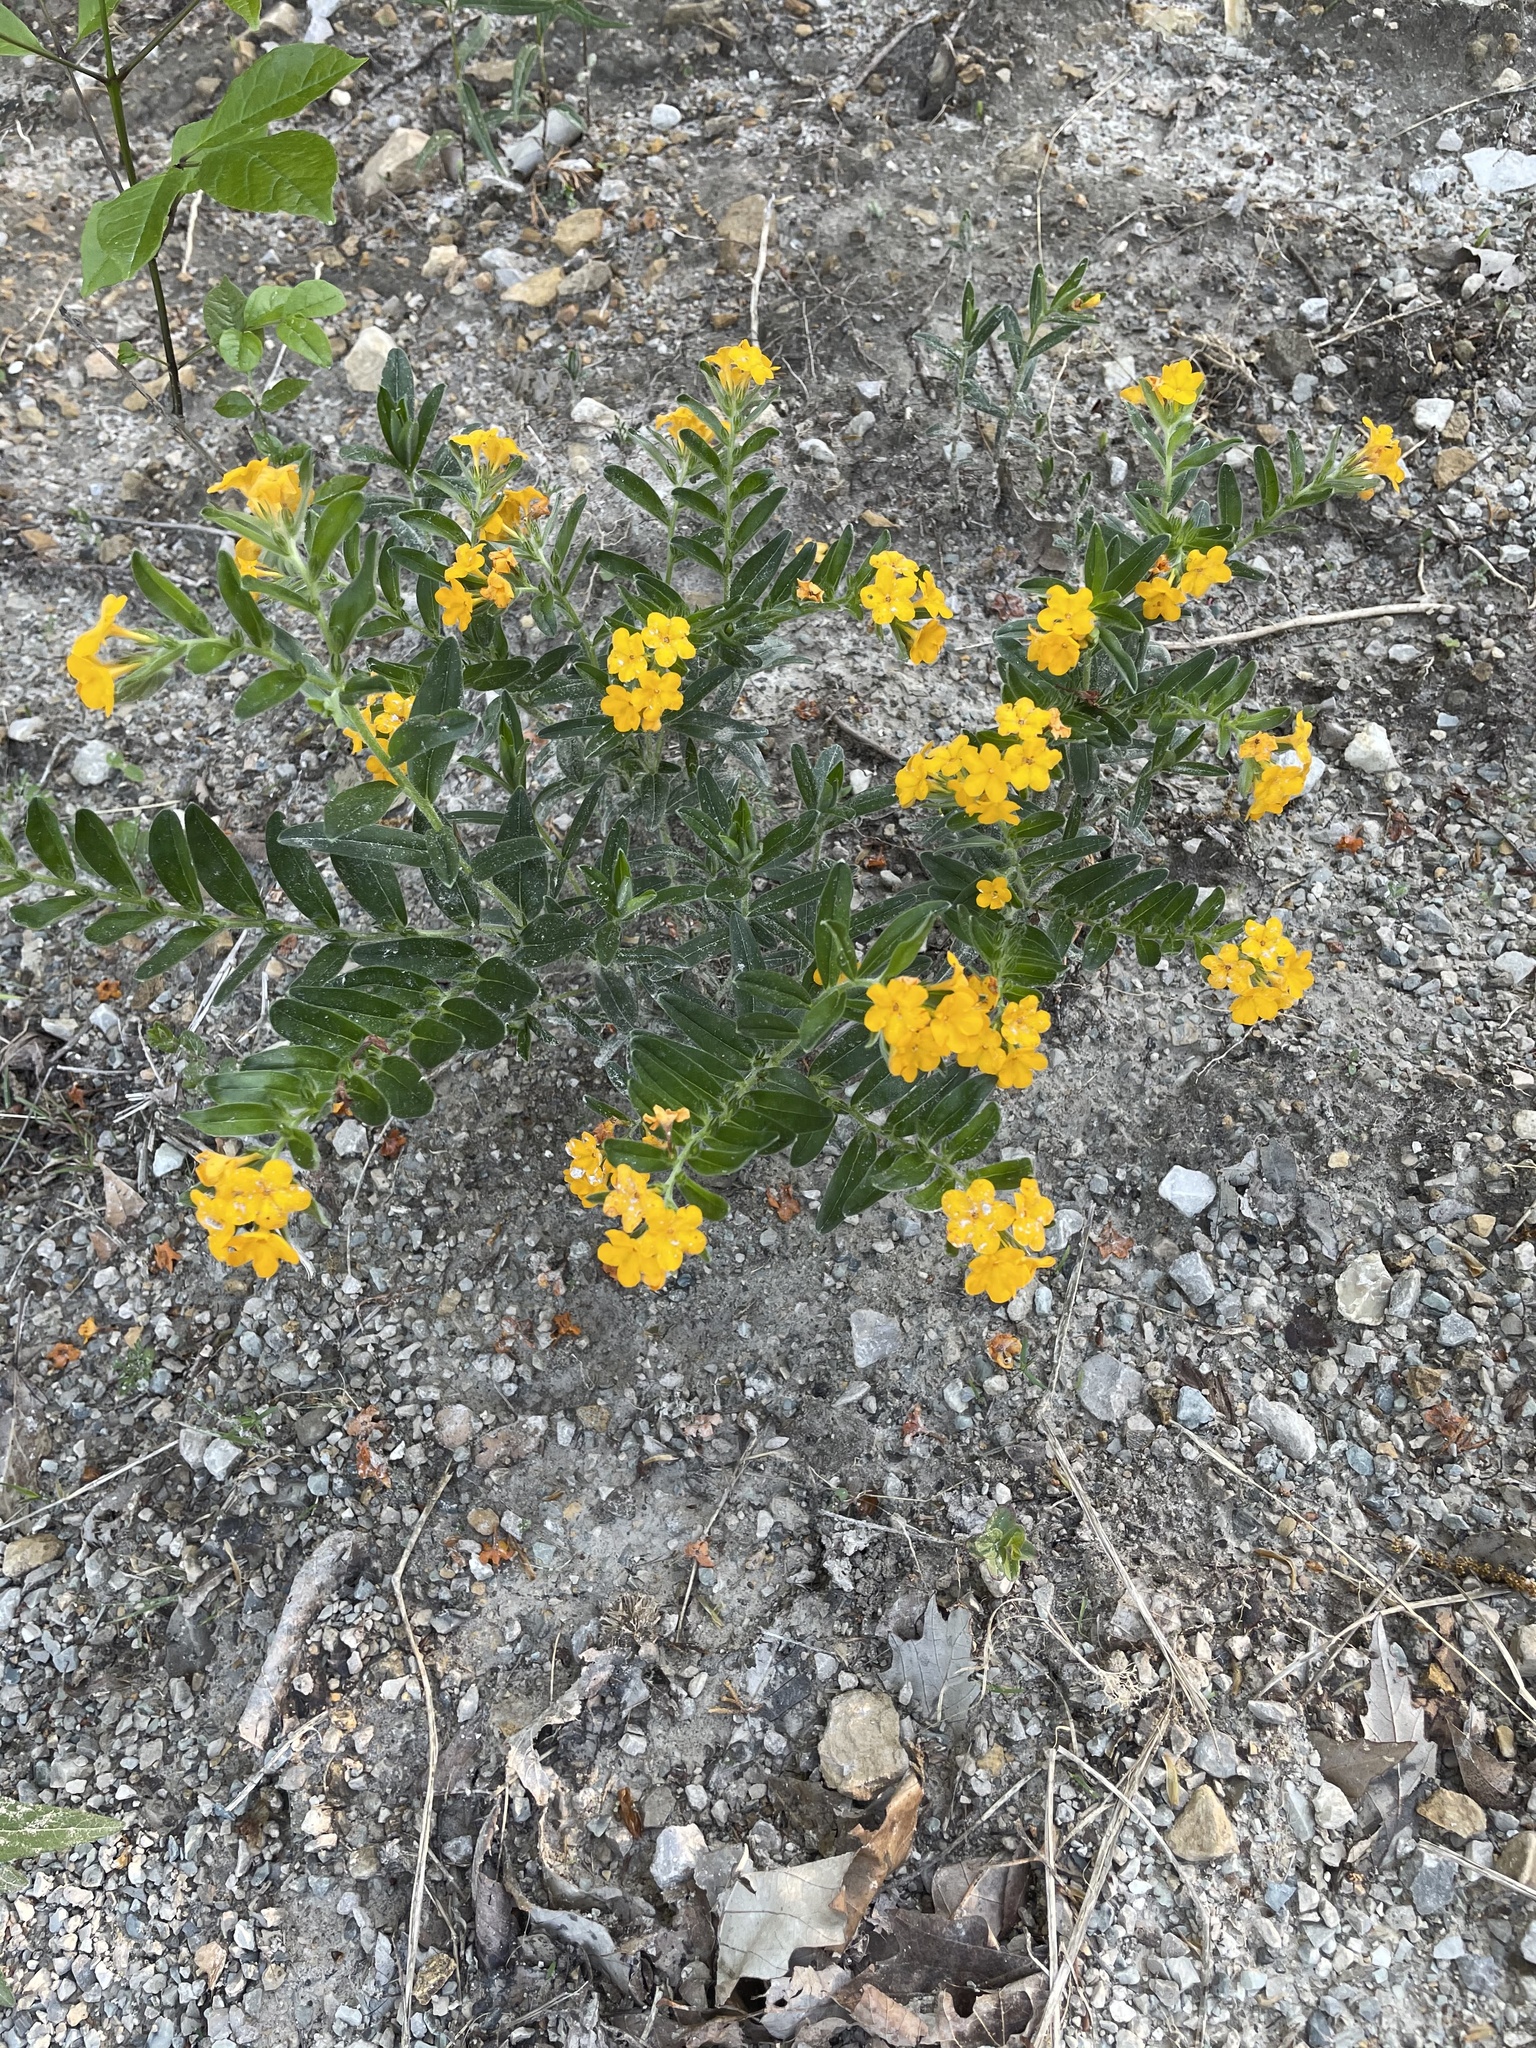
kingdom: Plantae
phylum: Tracheophyta
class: Magnoliopsida
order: Boraginales
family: Boraginaceae
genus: Lithospermum
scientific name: Lithospermum canescens
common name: Hoary puccoon
